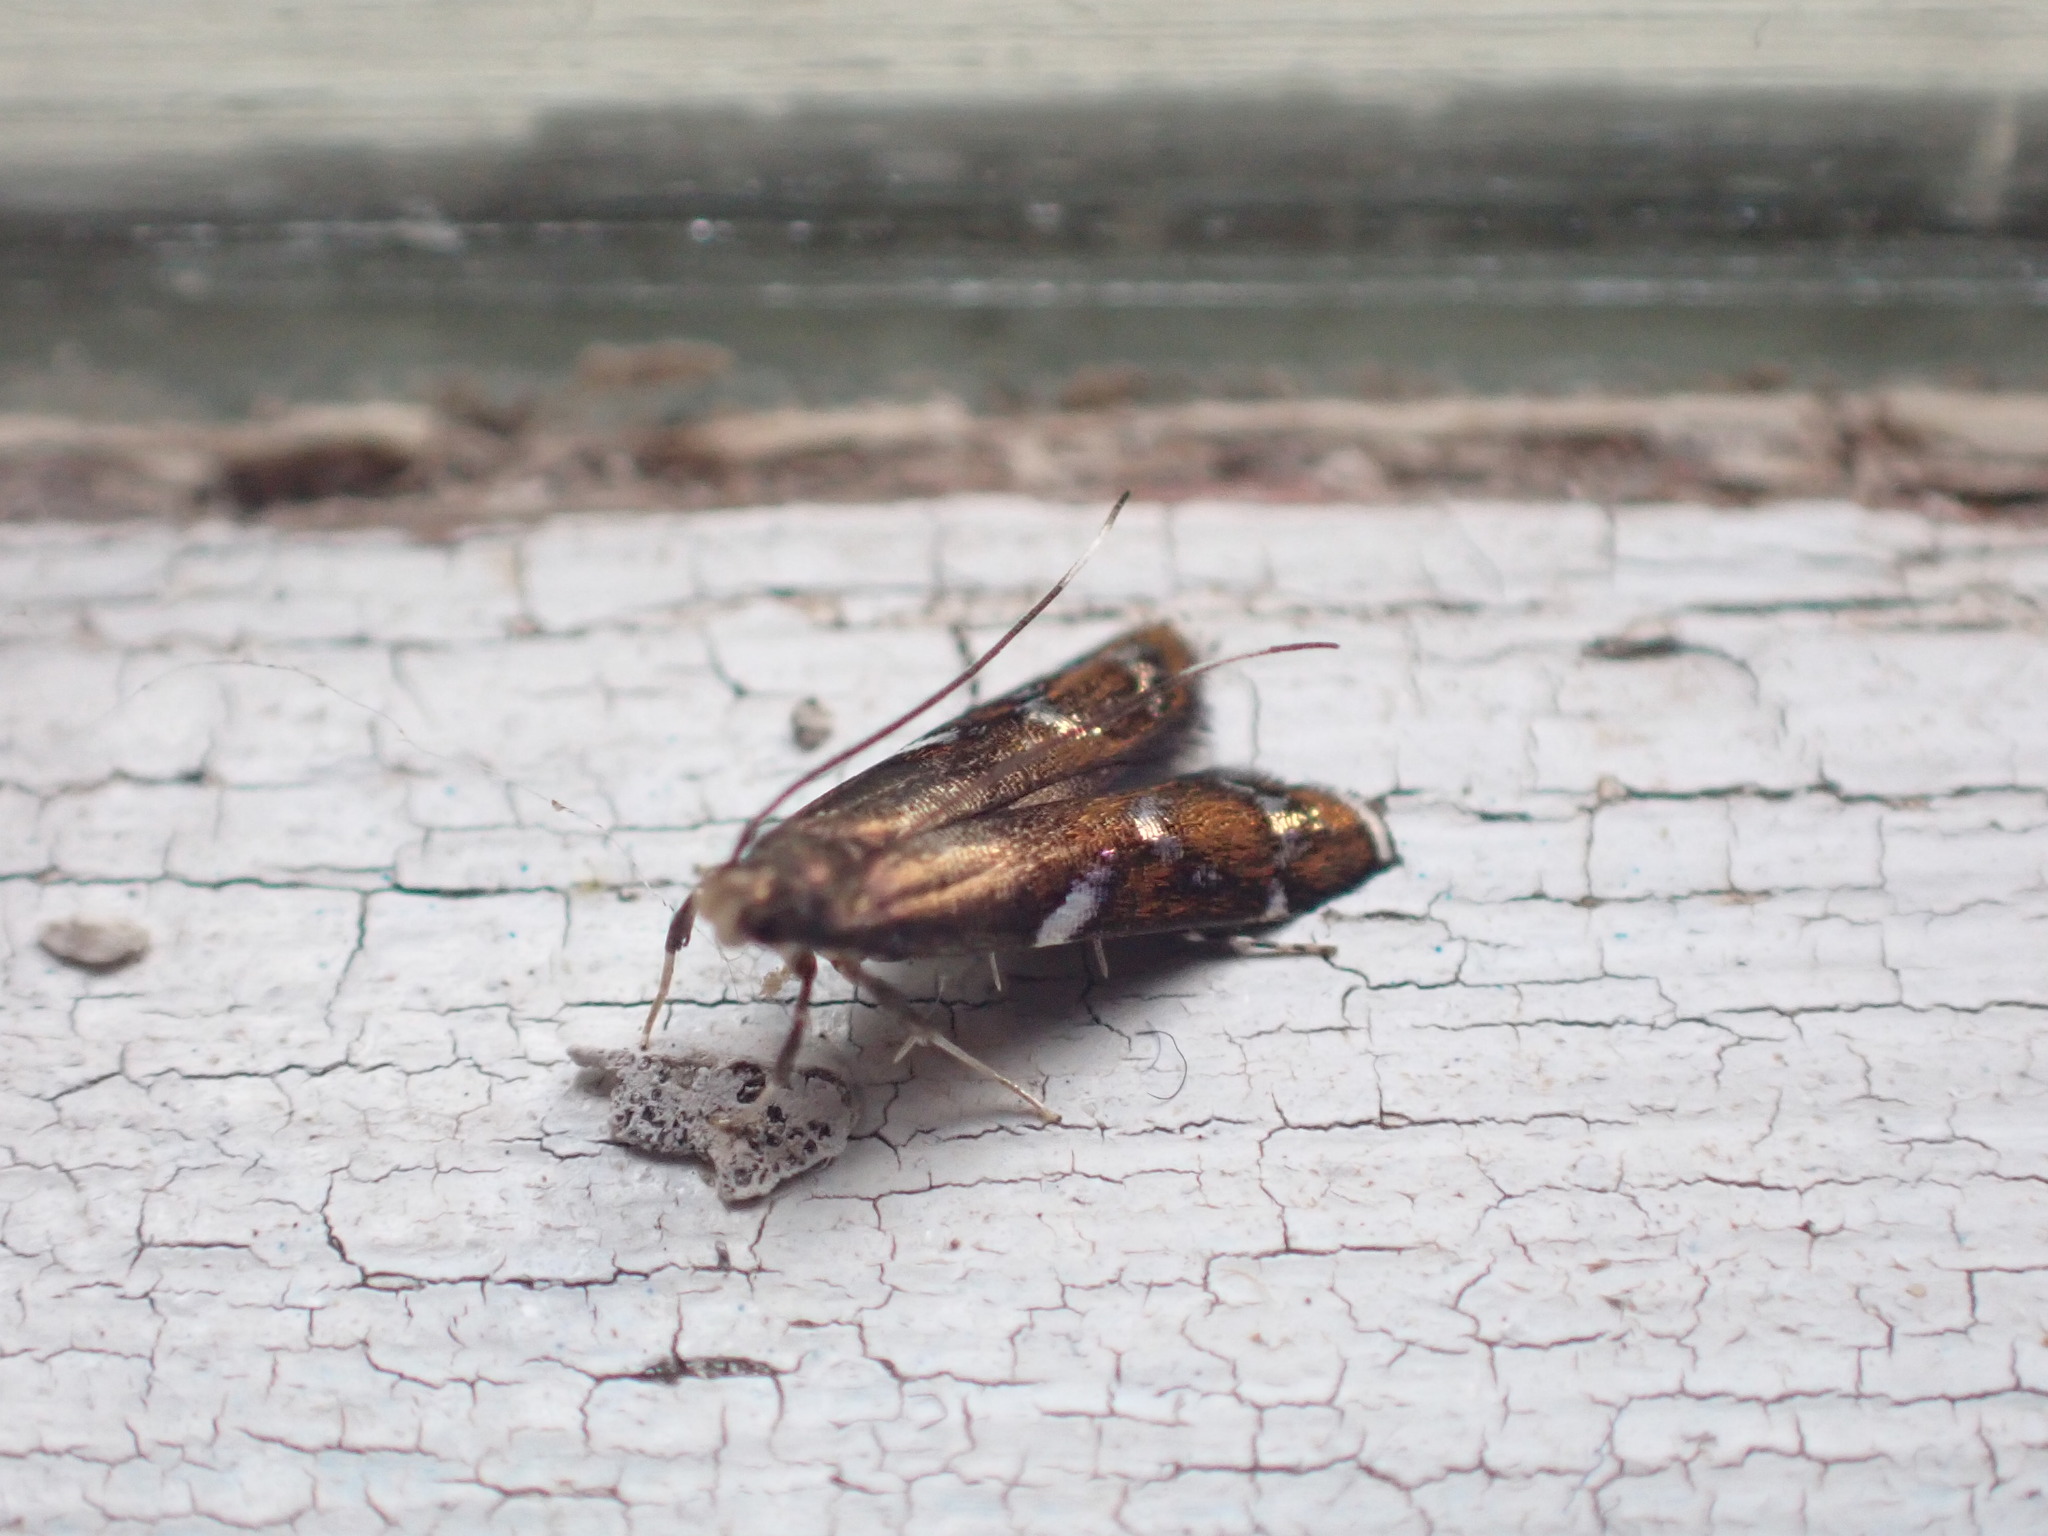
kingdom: Animalia
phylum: Arthropoda
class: Insecta
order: Lepidoptera
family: Depressariidae
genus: Compsistis
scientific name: Compsistis bifaciella
